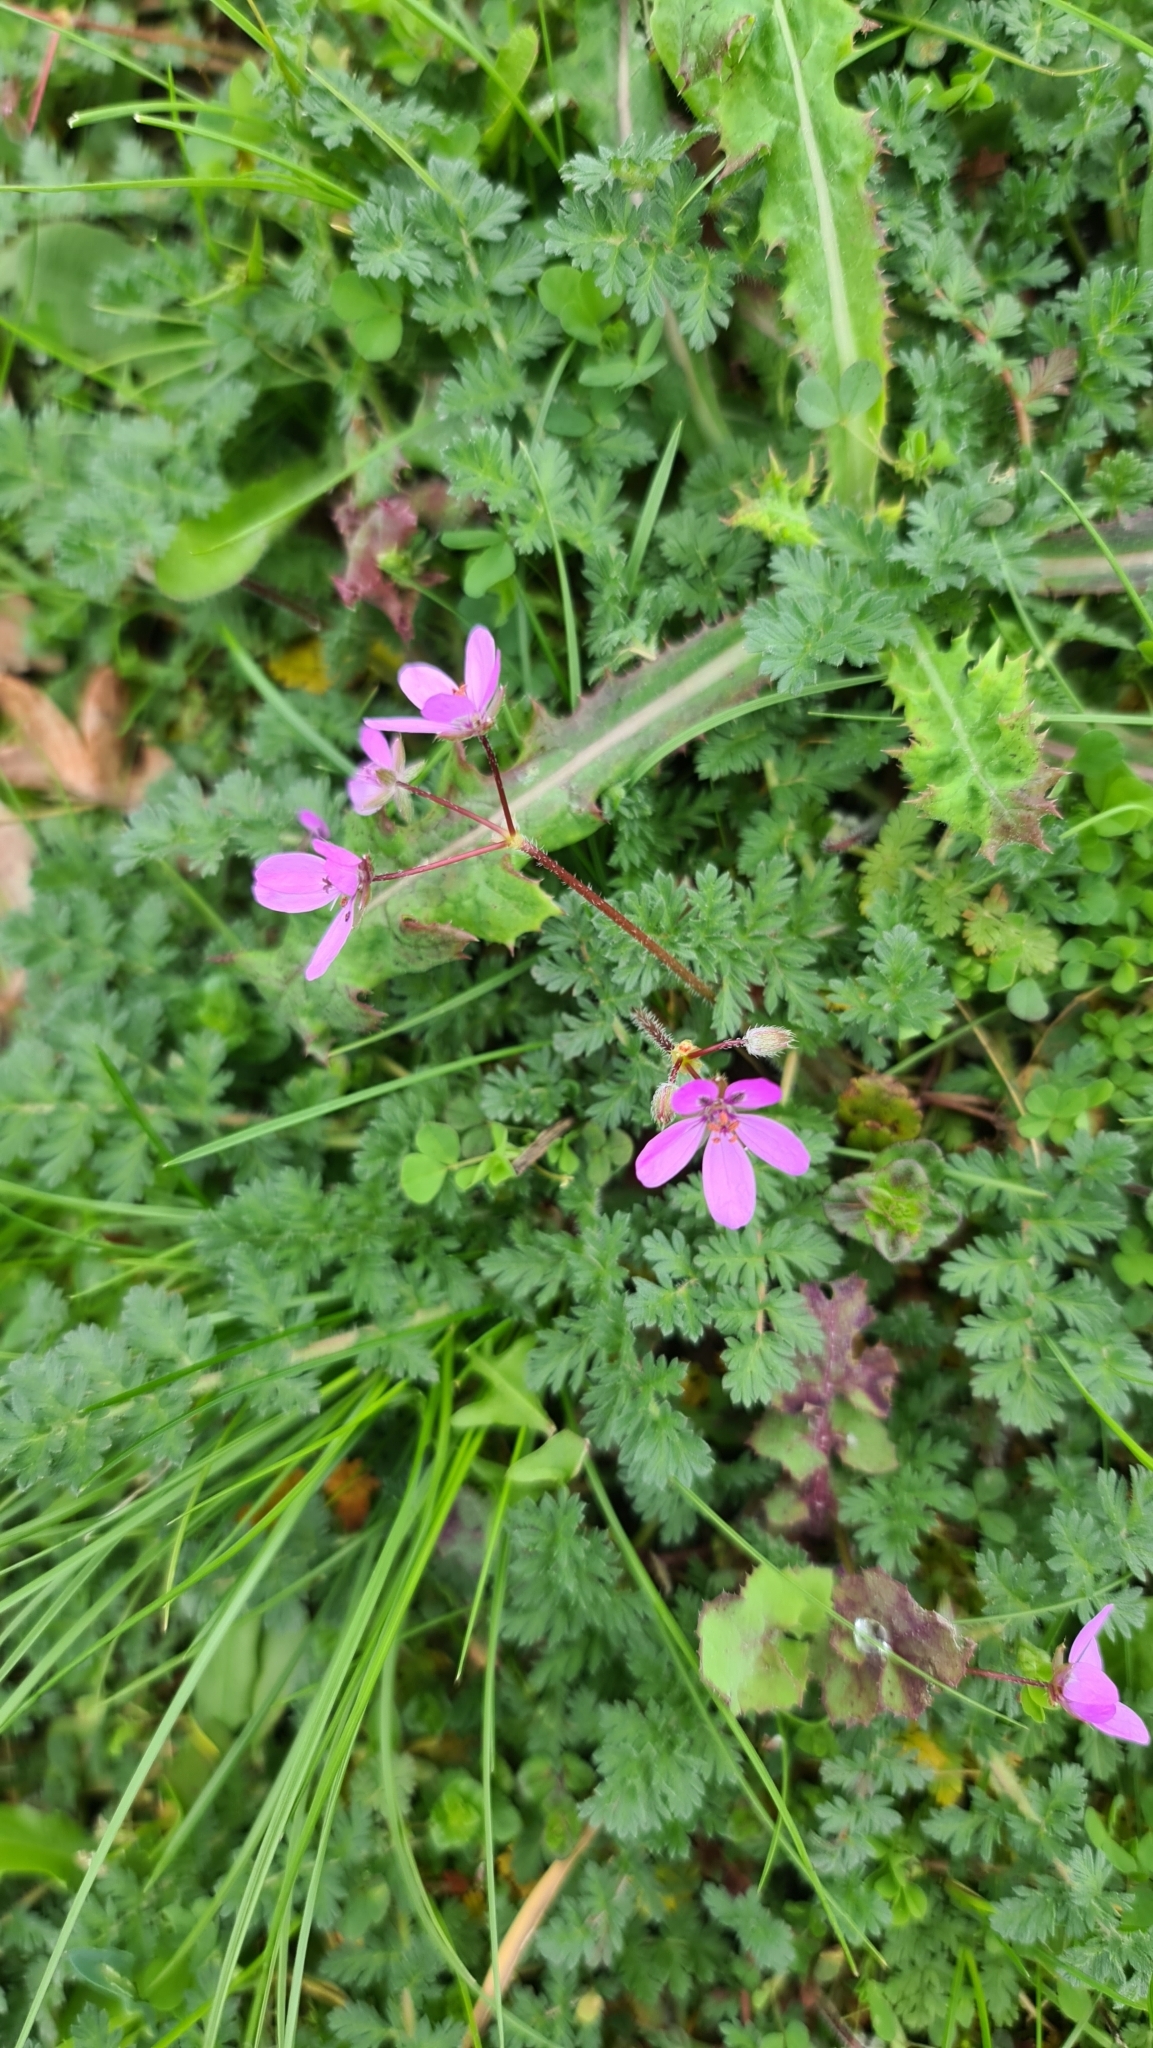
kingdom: Plantae
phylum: Tracheophyta
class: Magnoliopsida
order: Geraniales
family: Geraniaceae
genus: Erodium
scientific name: Erodium cicutarium
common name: Common stork's-bill
